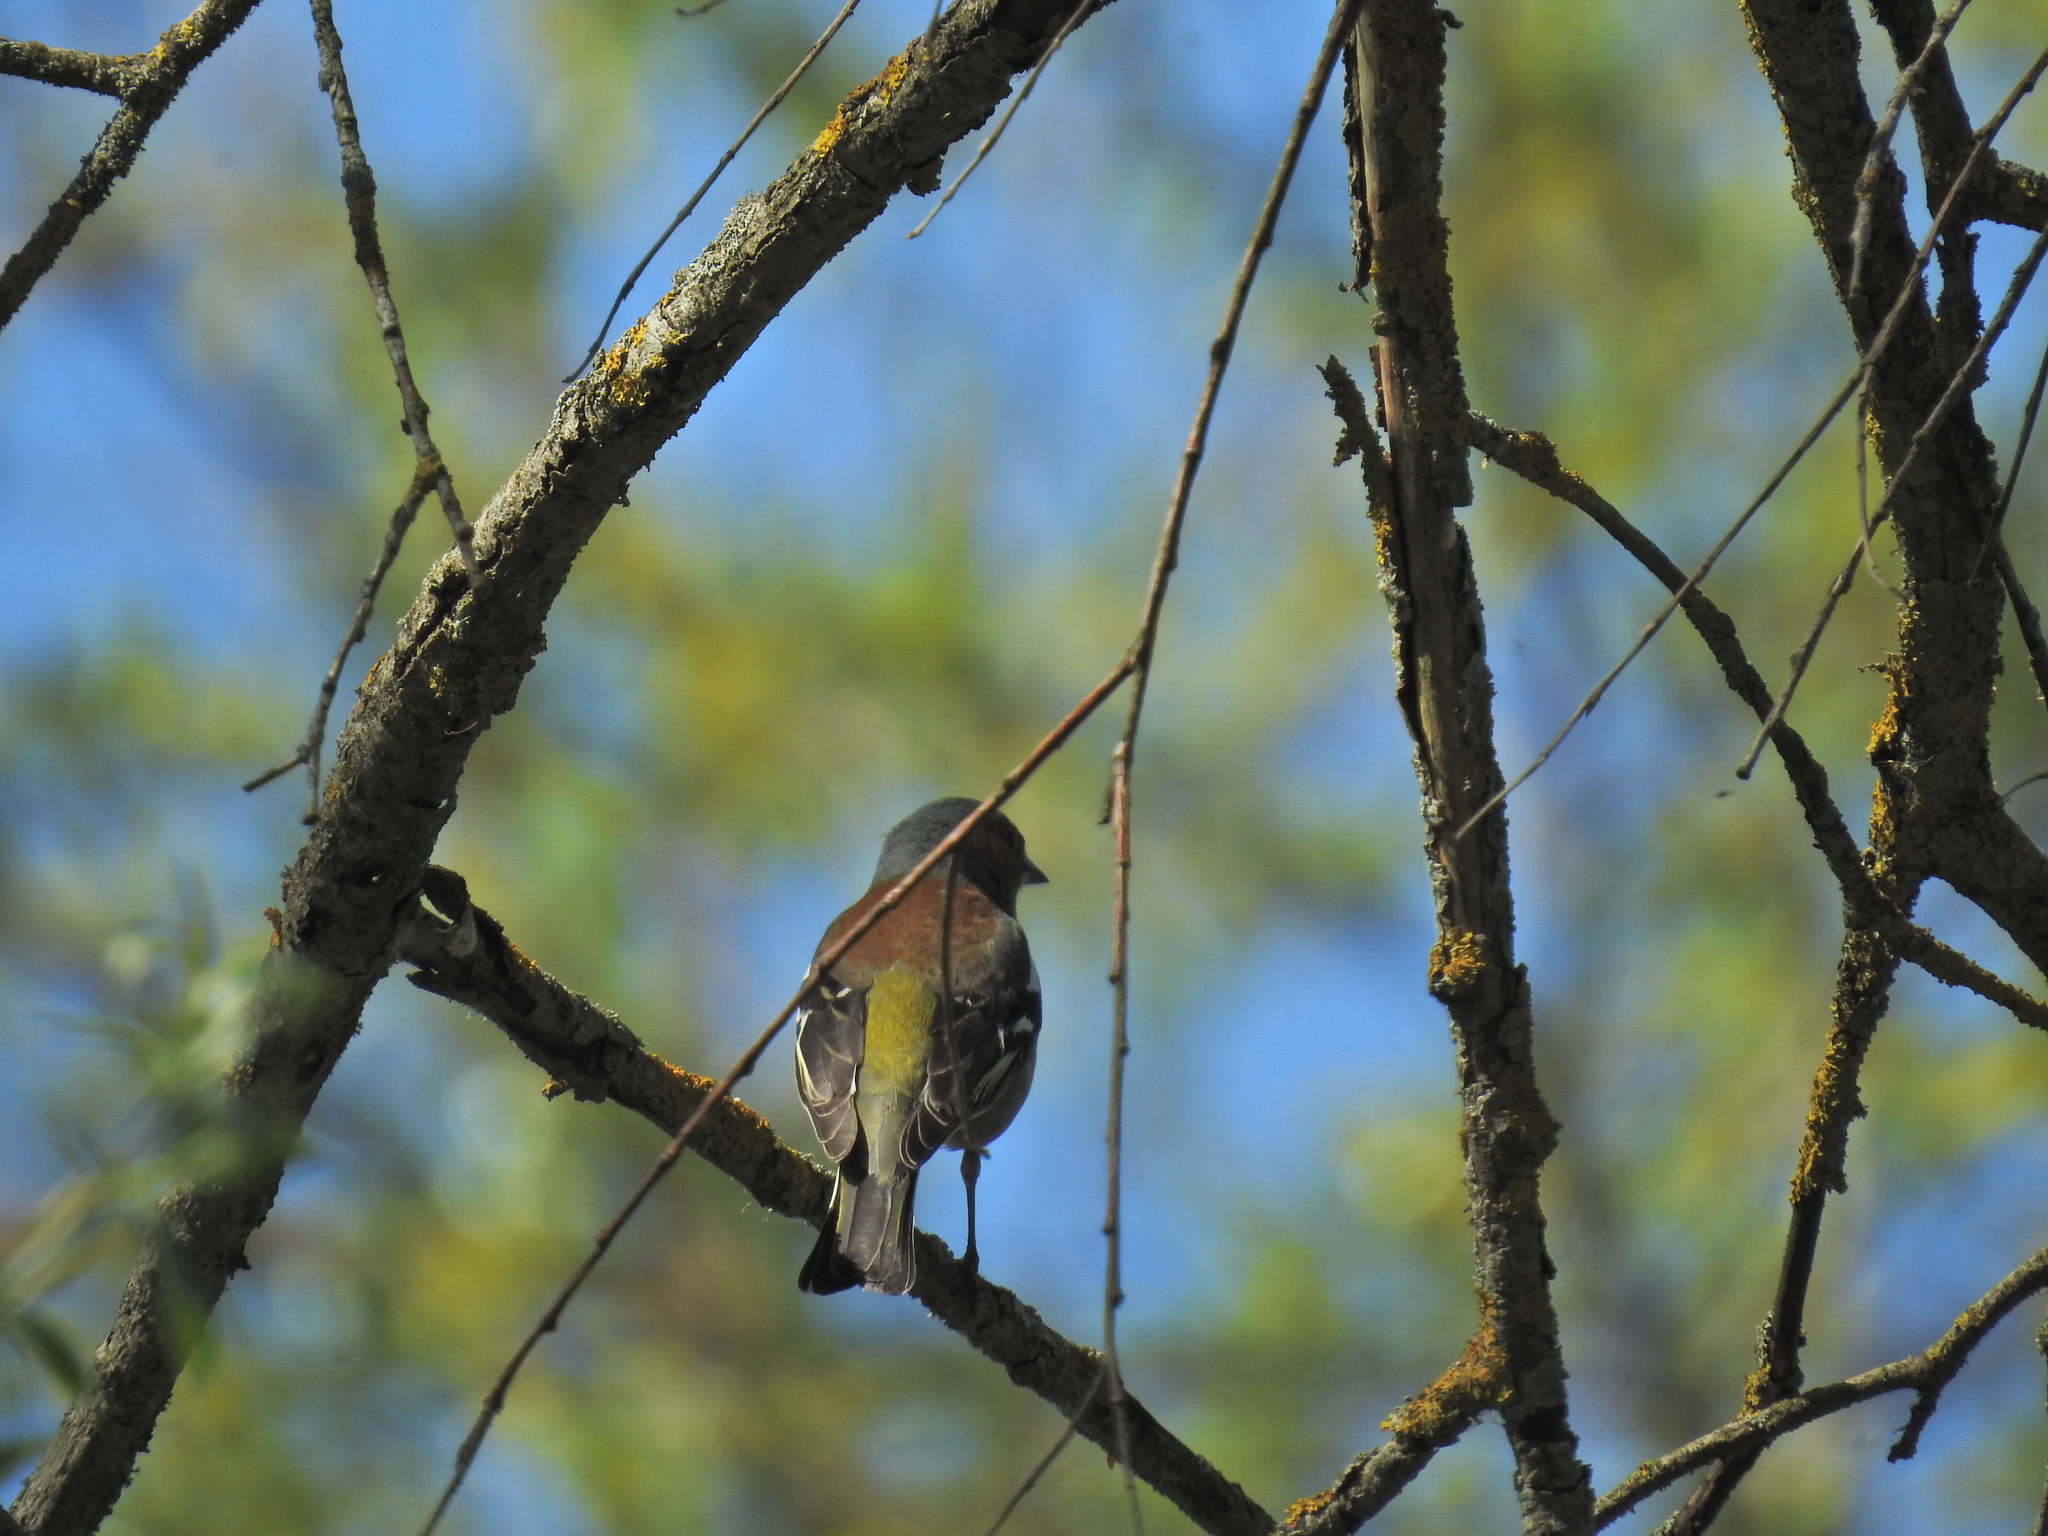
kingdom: Animalia
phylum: Chordata
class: Aves
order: Passeriformes
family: Fringillidae
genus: Fringilla
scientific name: Fringilla coelebs
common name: Common chaffinch
